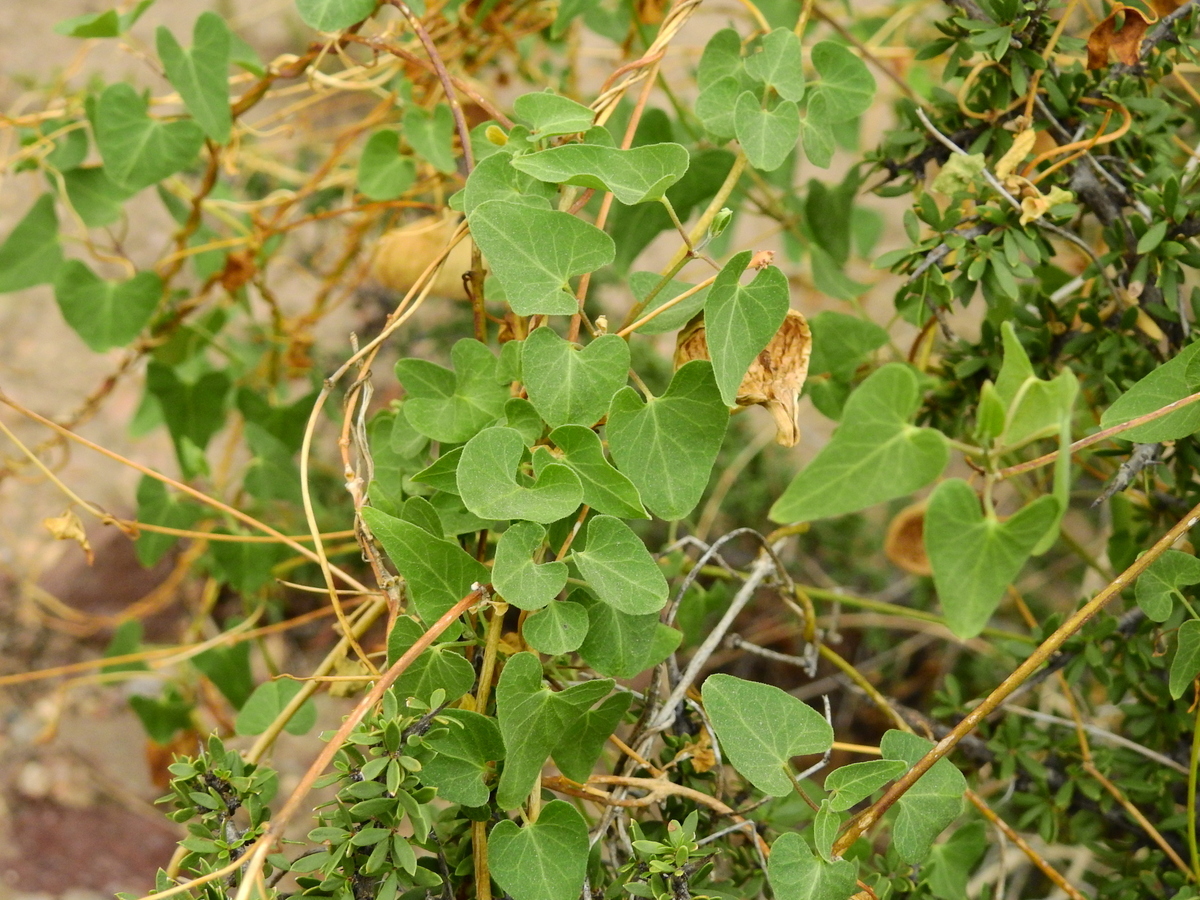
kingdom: Plantae
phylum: Tracheophyta
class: Magnoliopsida
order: Gentianales
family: Apocynaceae
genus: Philibertia
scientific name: Philibertia gilliesii
